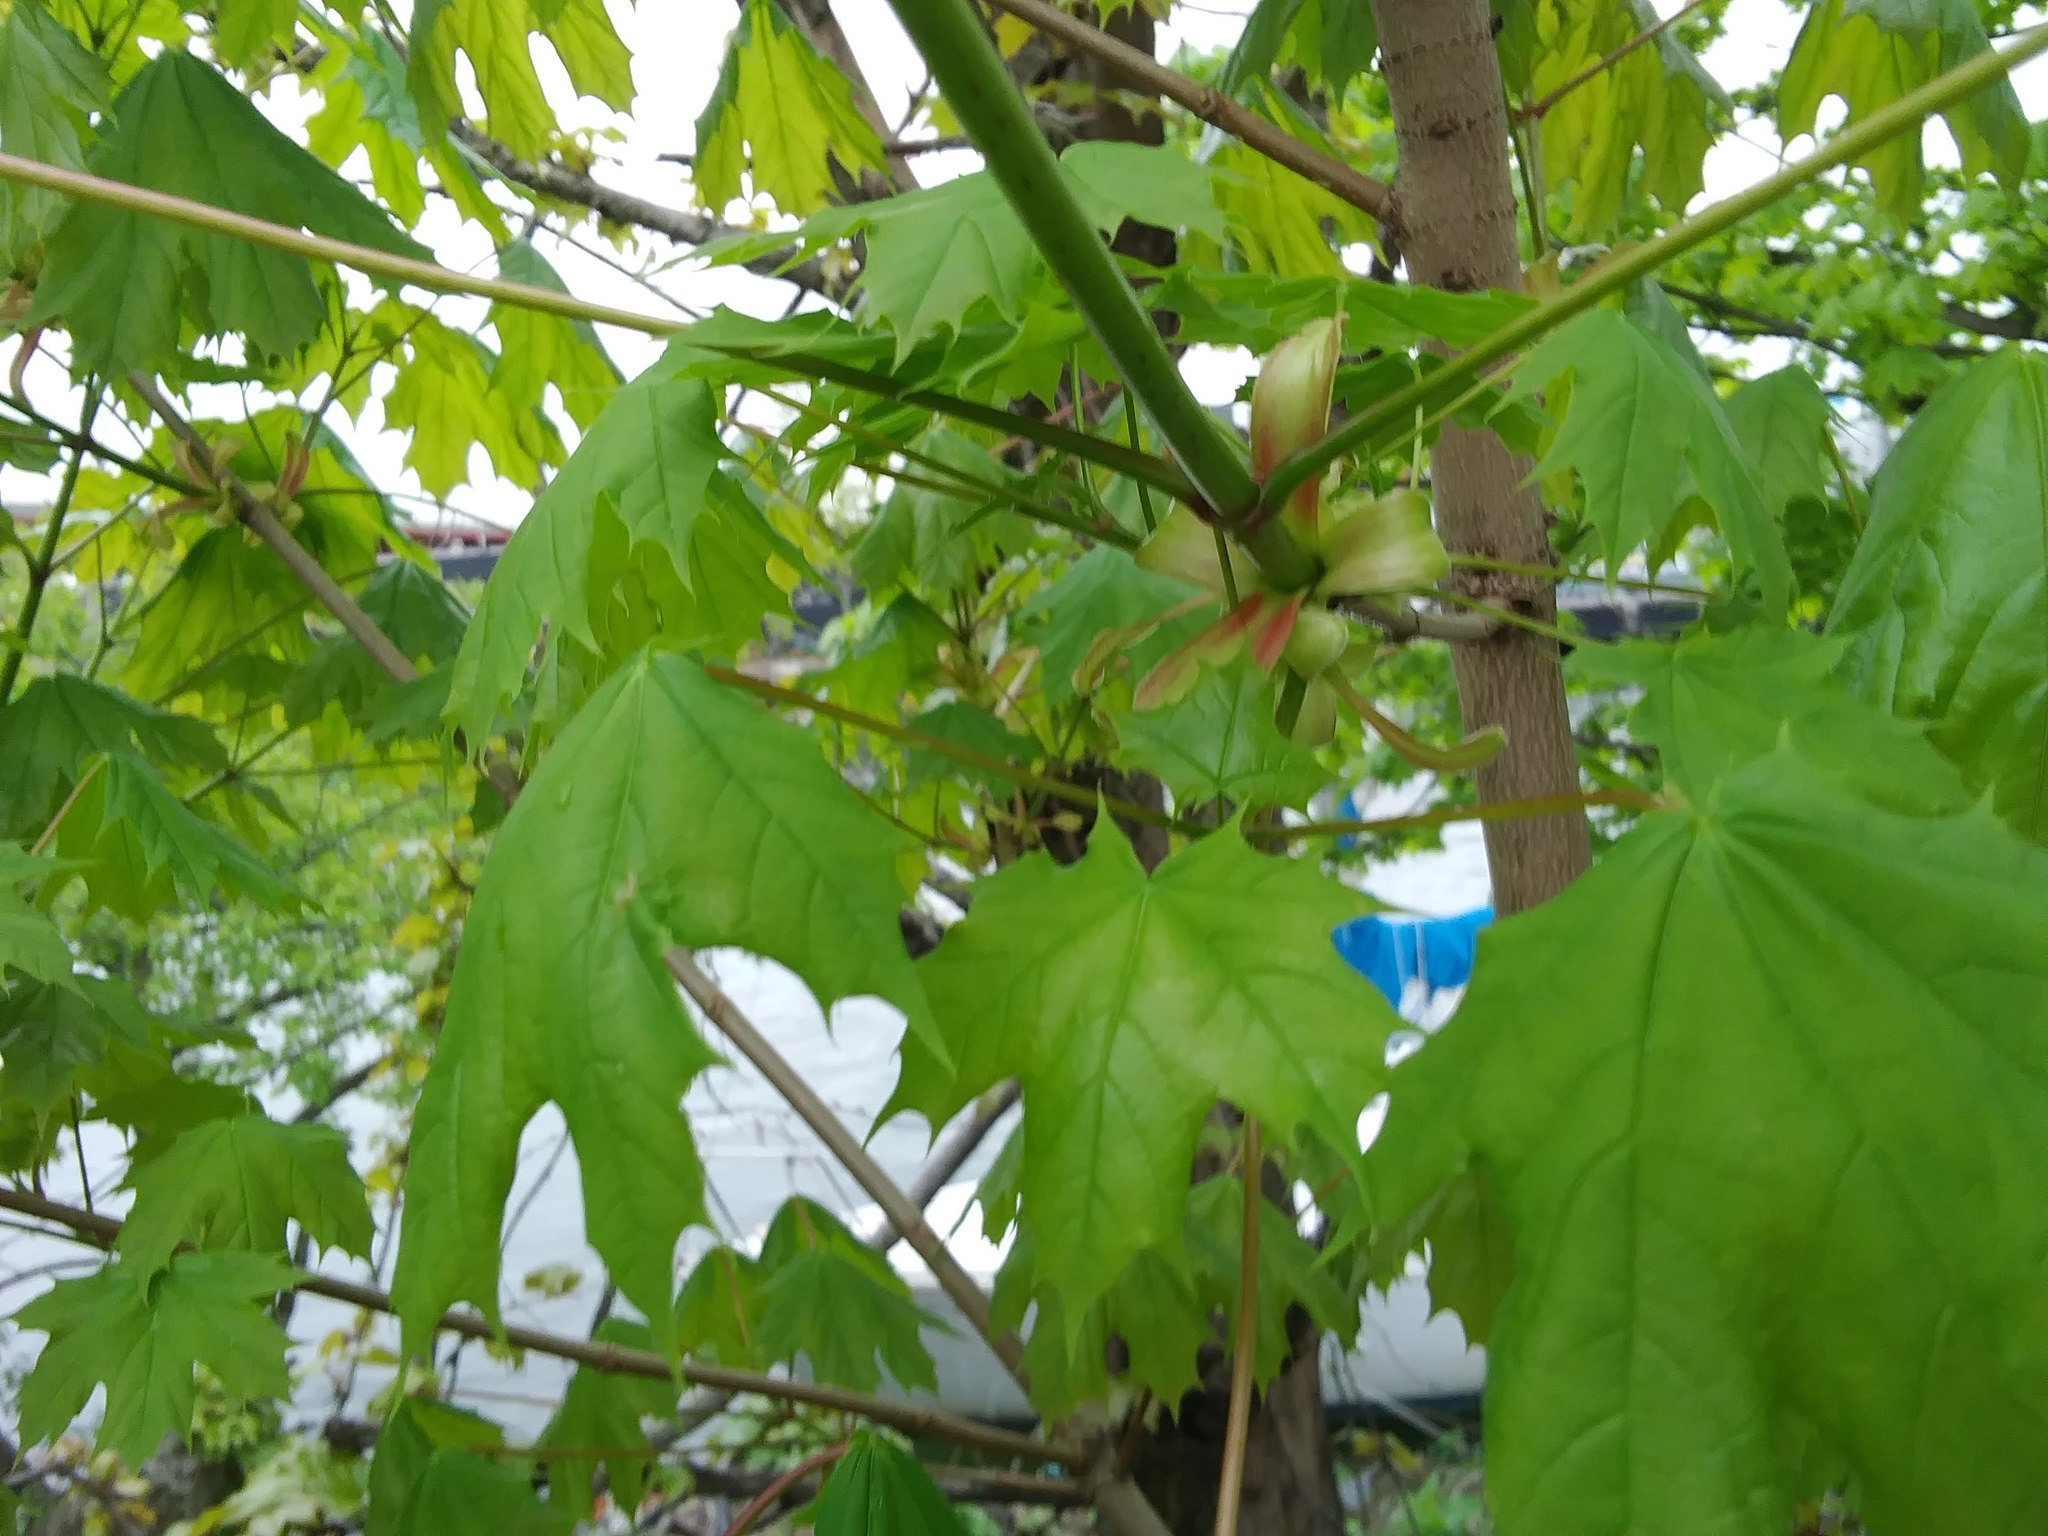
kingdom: Plantae
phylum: Tracheophyta
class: Magnoliopsida
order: Sapindales
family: Sapindaceae
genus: Acer
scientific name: Acer platanoides
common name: Norway maple
